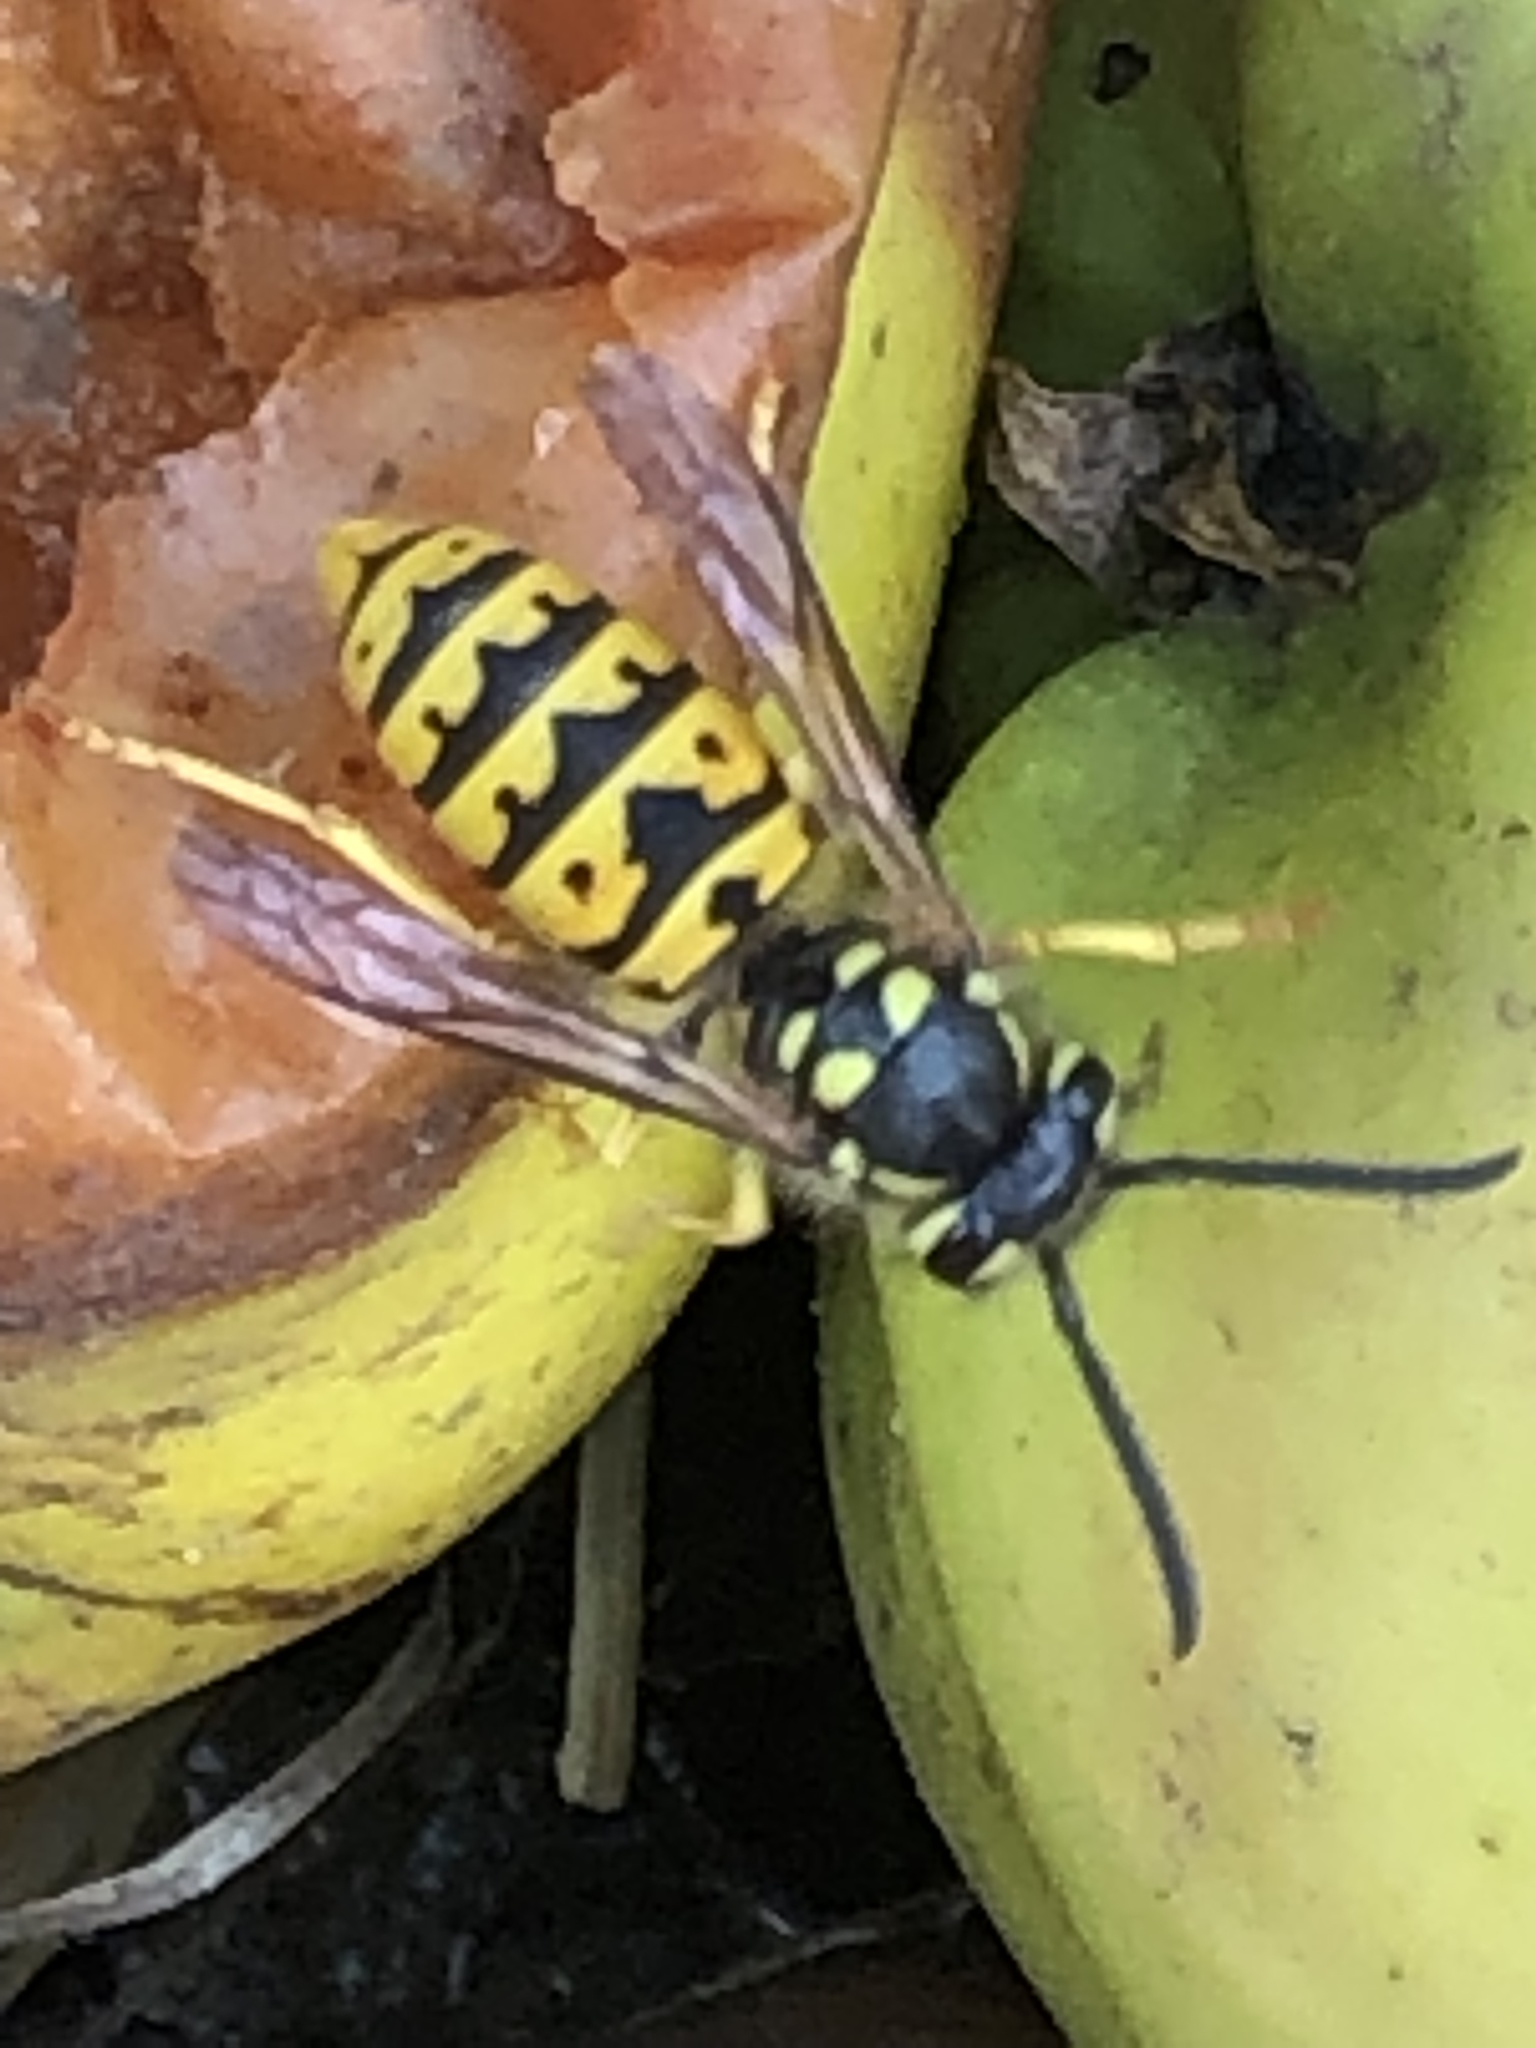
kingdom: Animalia
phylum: Arthropoda
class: Insecta
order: Hymenoptera
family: Vespidae
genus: Vespula
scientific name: Vespula germanica
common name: German wasp
